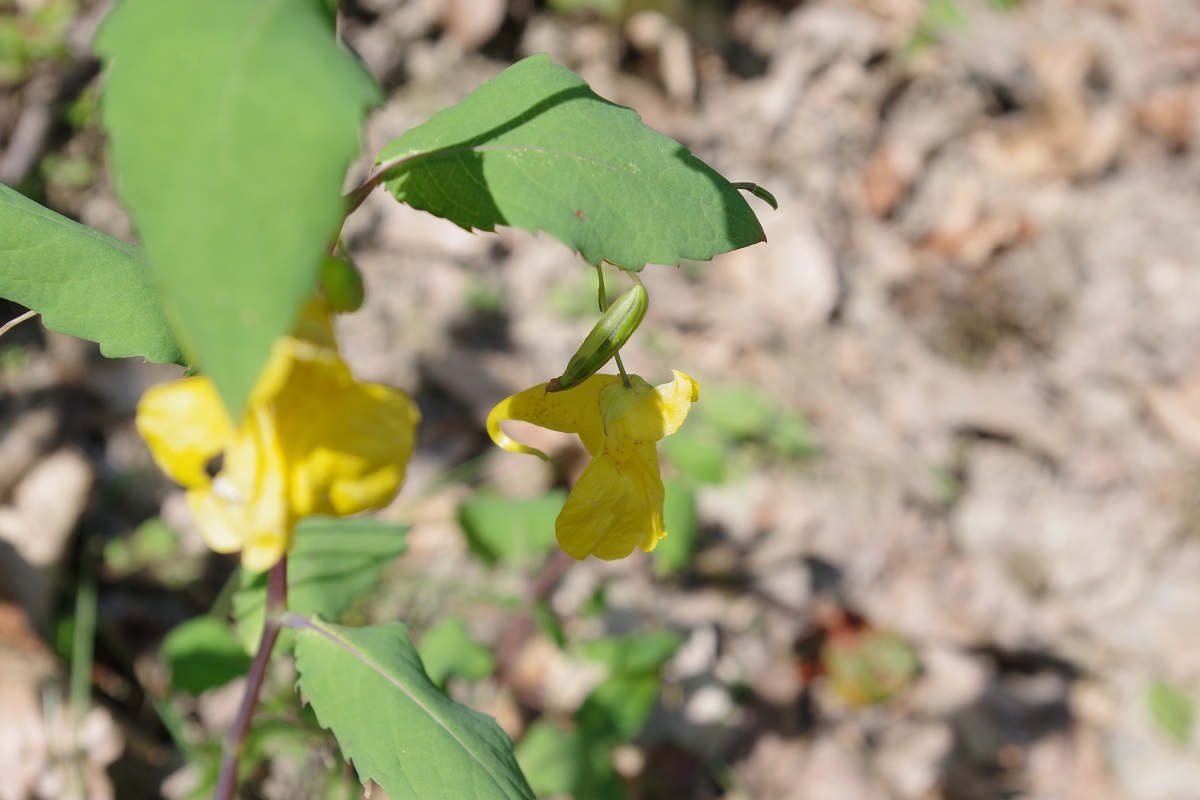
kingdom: Plantae
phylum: Tracheophyta
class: Magnoliopsida
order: Ericales
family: Balsaminaceae
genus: Impatiens
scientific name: Impatiens noli-tangere
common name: Touch-me-not balsam
